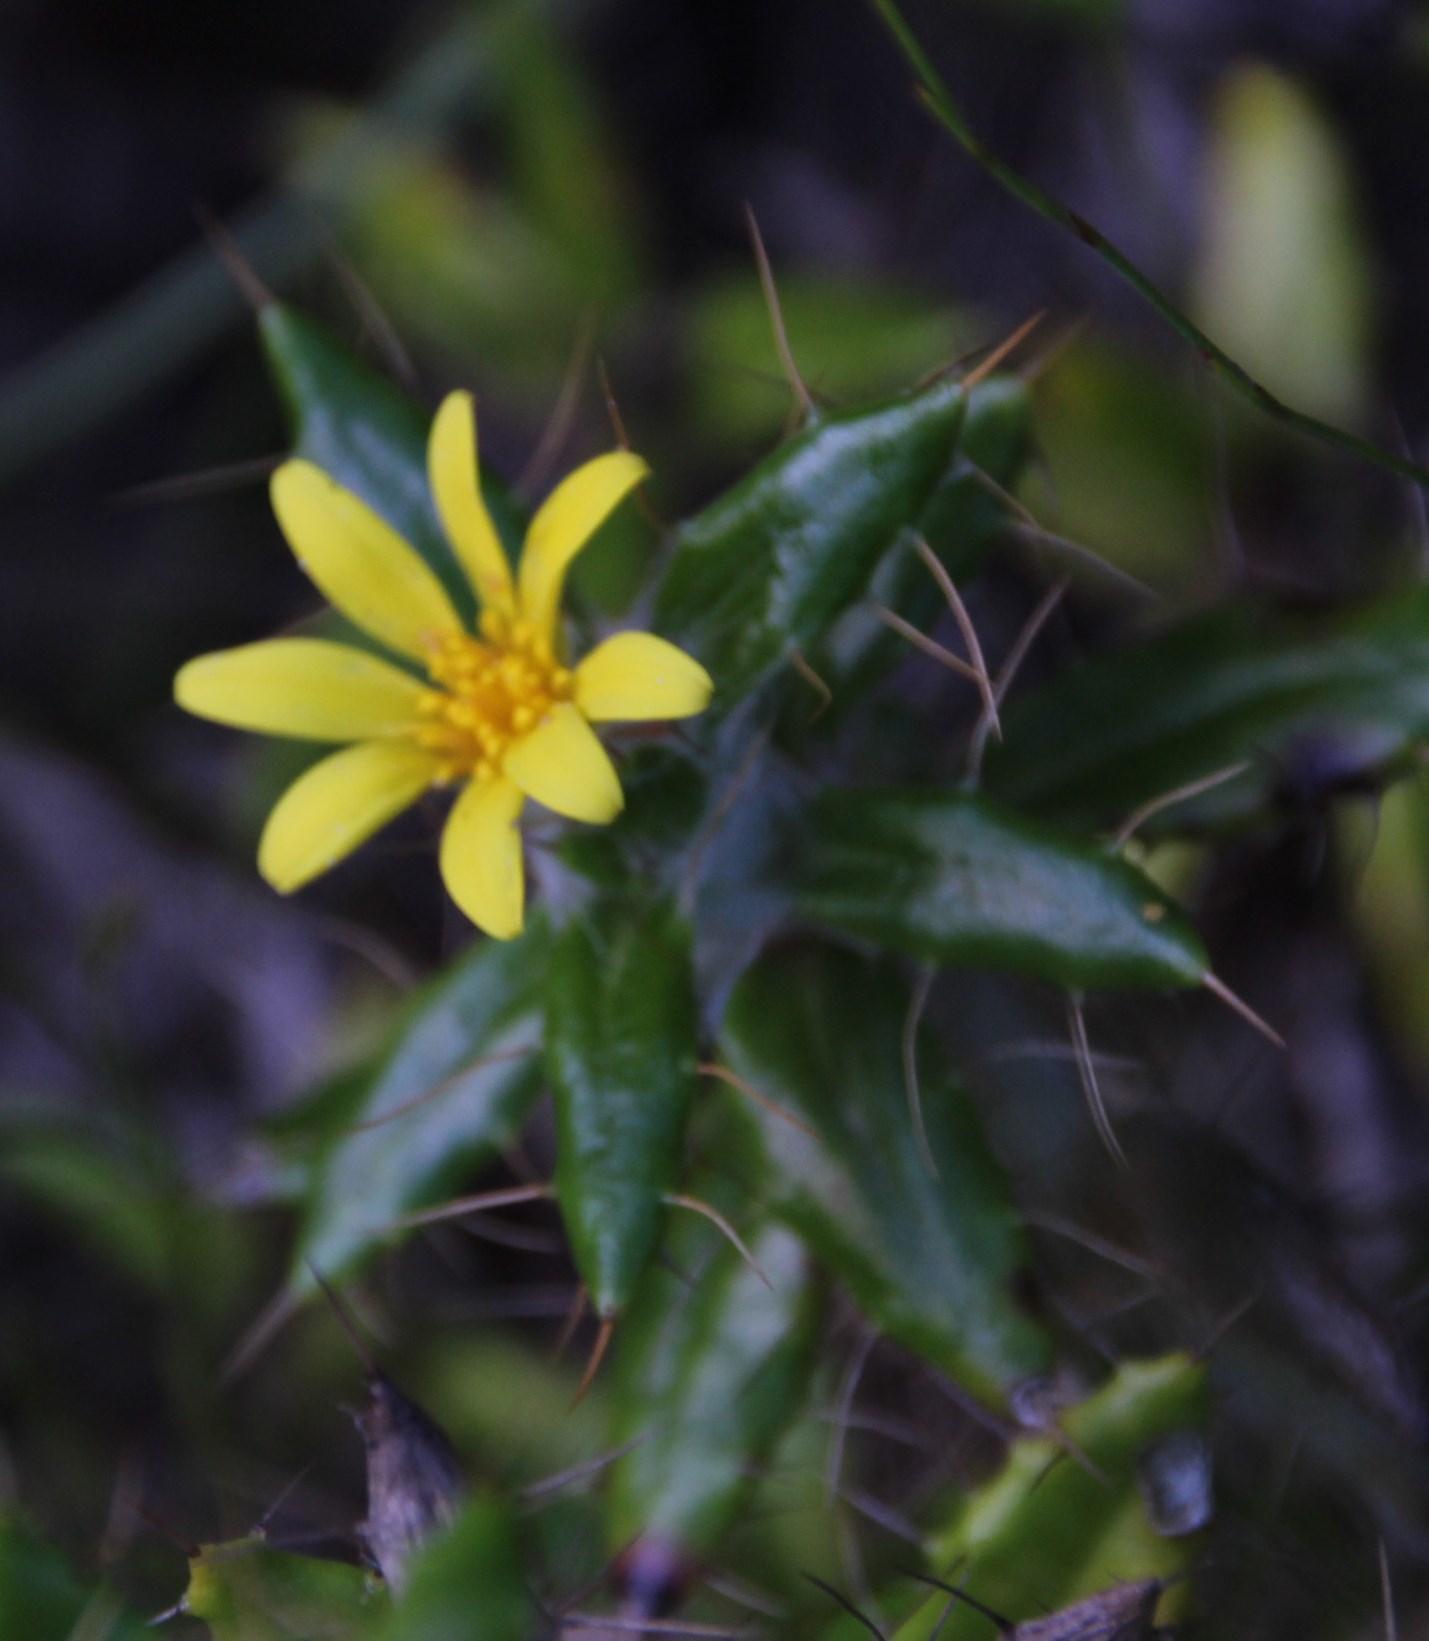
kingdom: Plantae
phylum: Tracheophyta
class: Magnoliopsida
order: Asterales
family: Asteraceae
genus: Cullumia
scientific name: Cullumia aculeata
